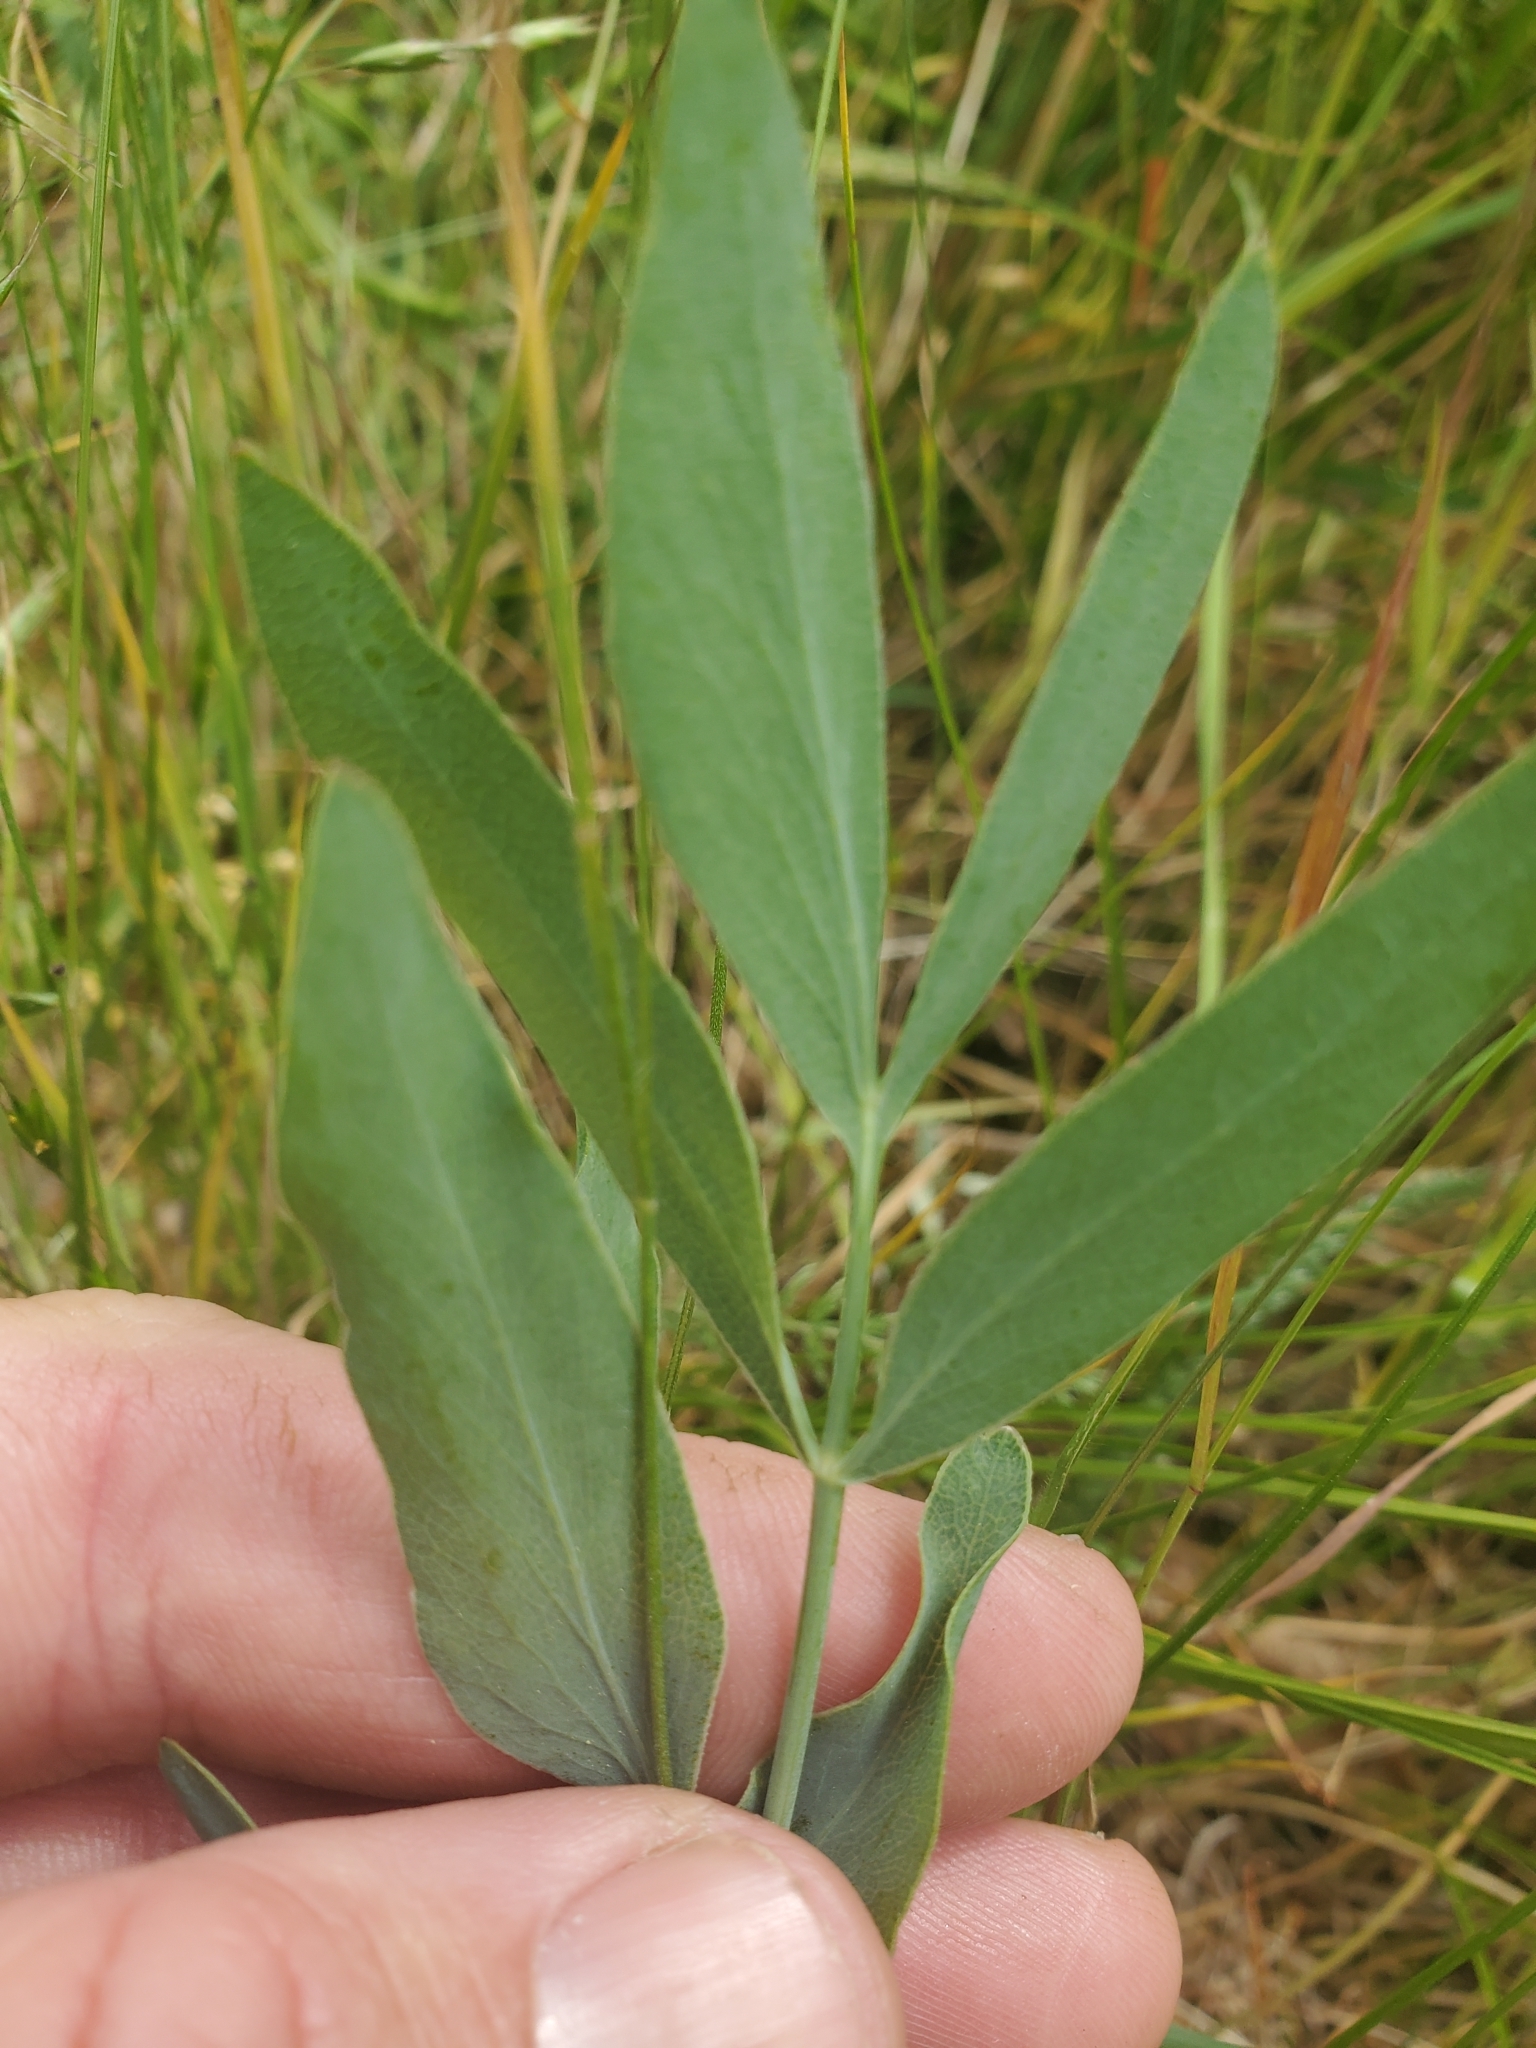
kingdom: Plantae
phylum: Tracheophyta
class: Magnoliopsida
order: Apiales
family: Apiaceae
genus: Lomatium
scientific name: Lomatium nudicaule
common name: Pestle lomatium
